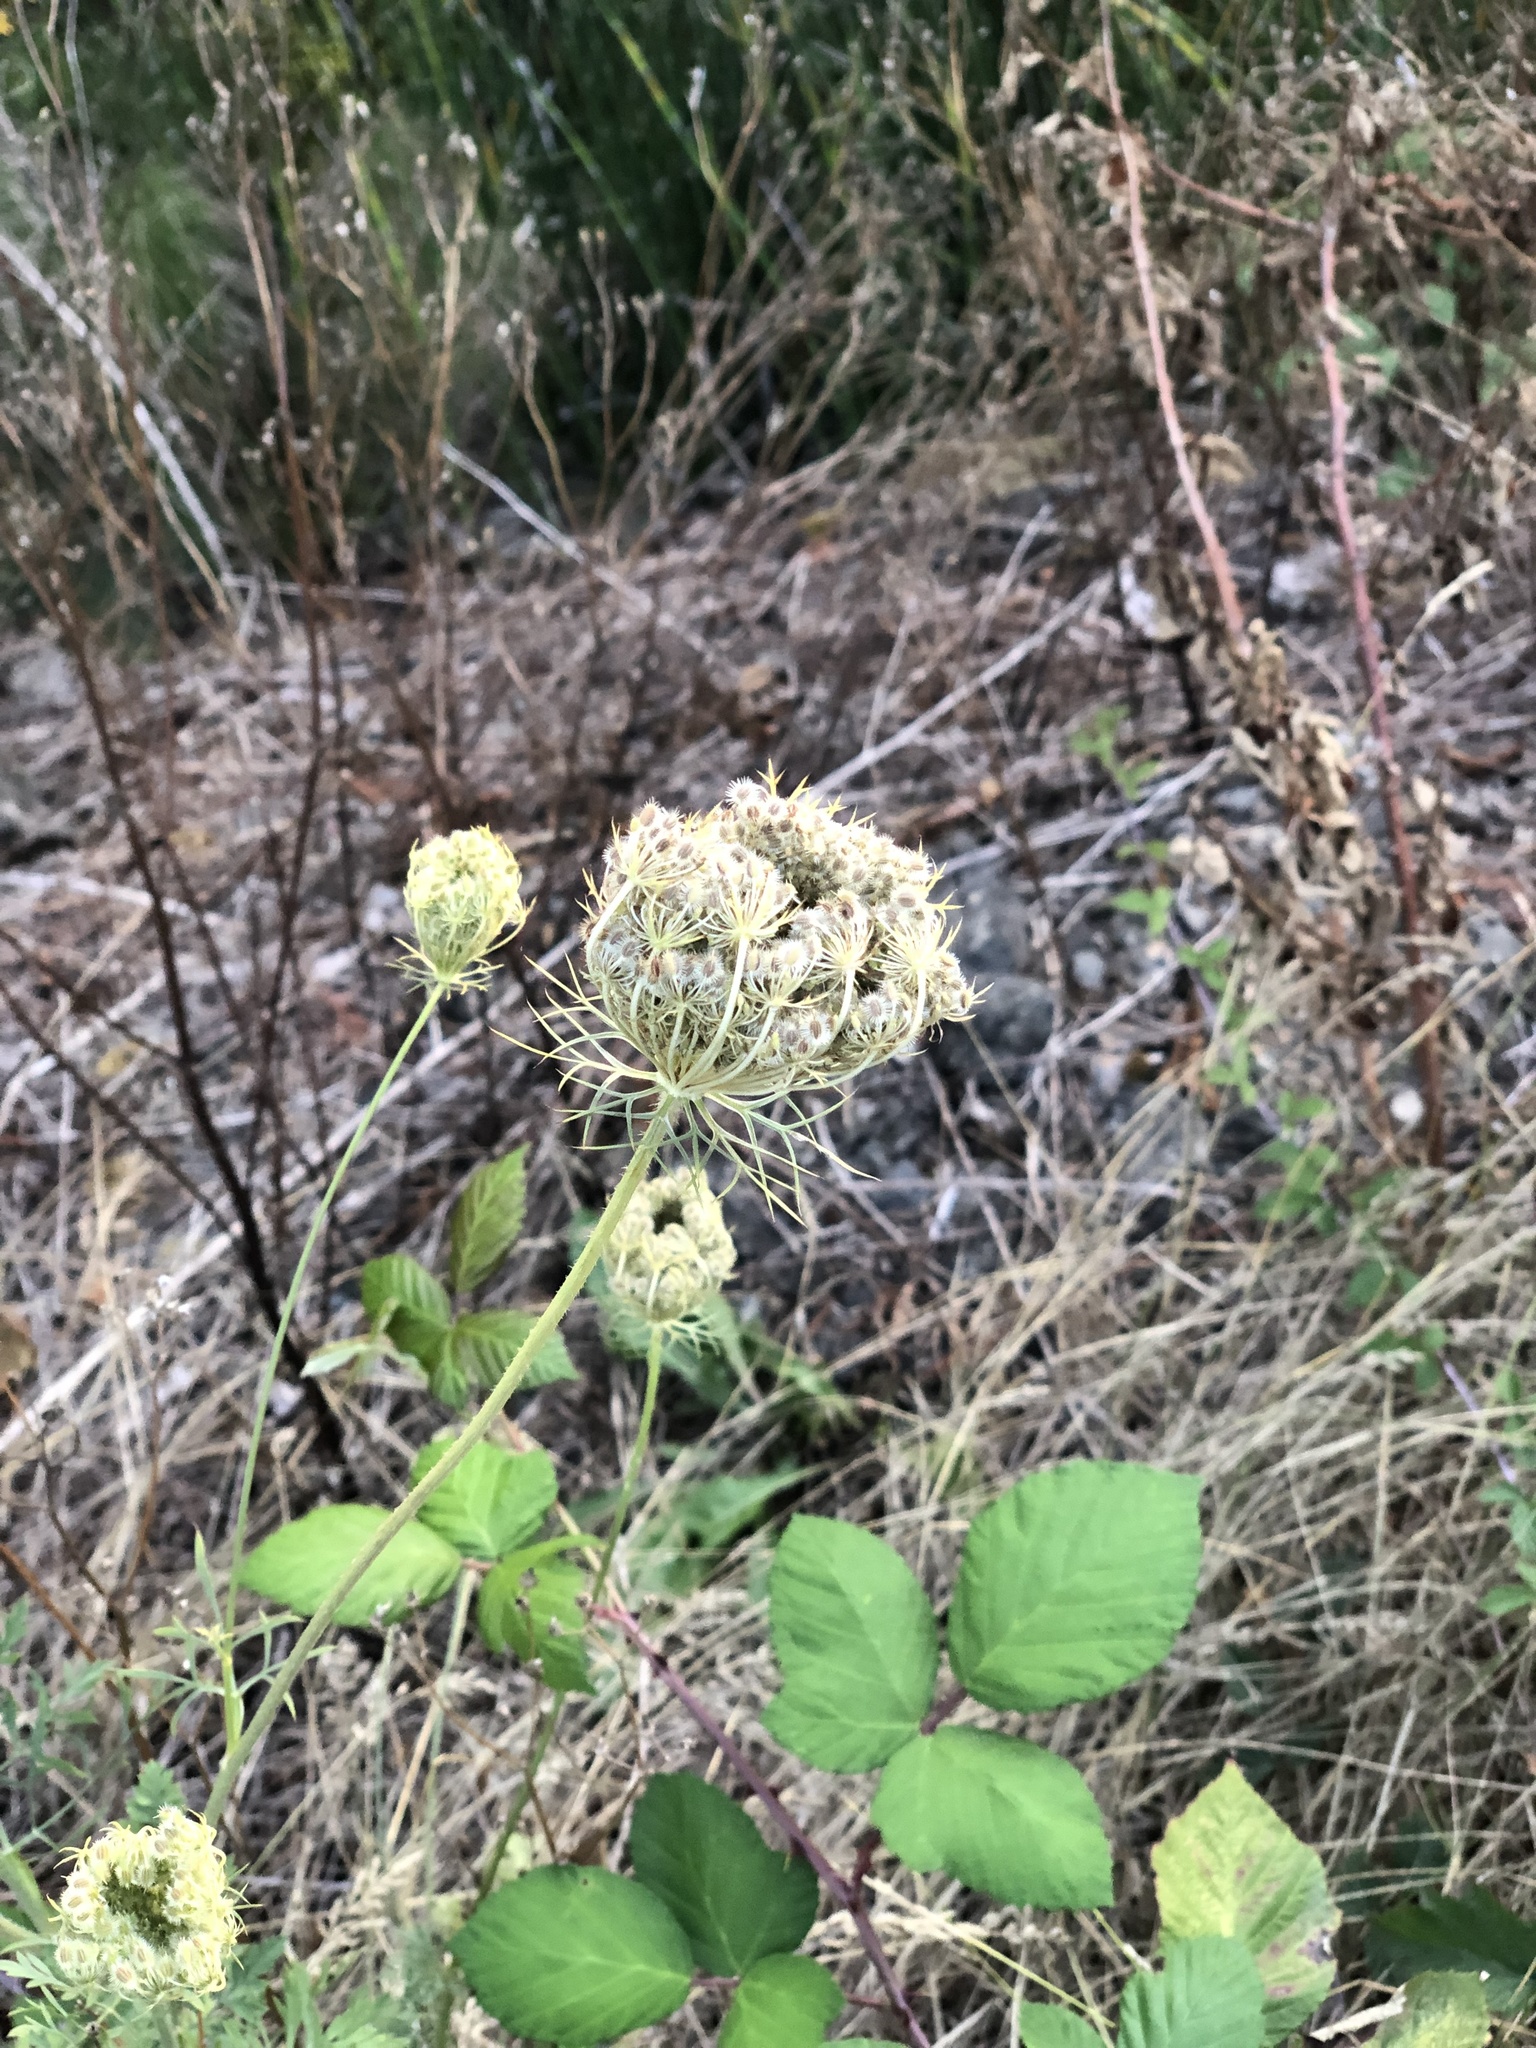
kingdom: Plantae
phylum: Tracheophyta
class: Magnoliopsida
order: Apiales
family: Apiaceae
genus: Daucus
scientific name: Daucus carota
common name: Wild carrot
